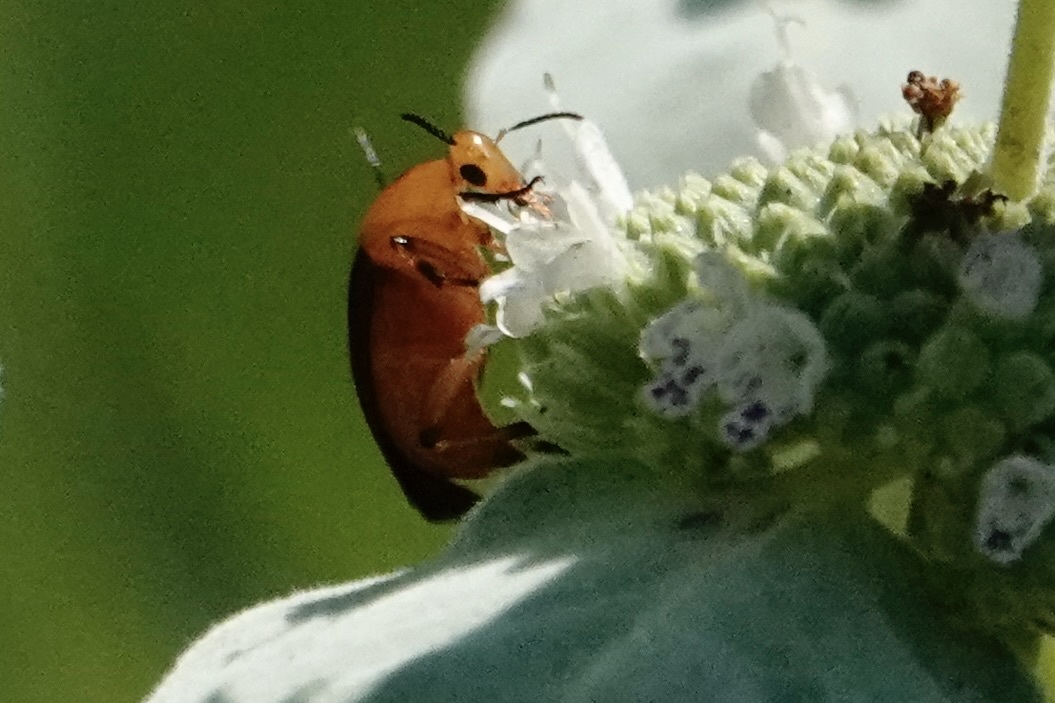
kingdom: Animalia
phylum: Arthropoda
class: Insecta
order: Coleoptera
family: Ripiphoridae
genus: Macrosiagon
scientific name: Macrosiagon limbatum
